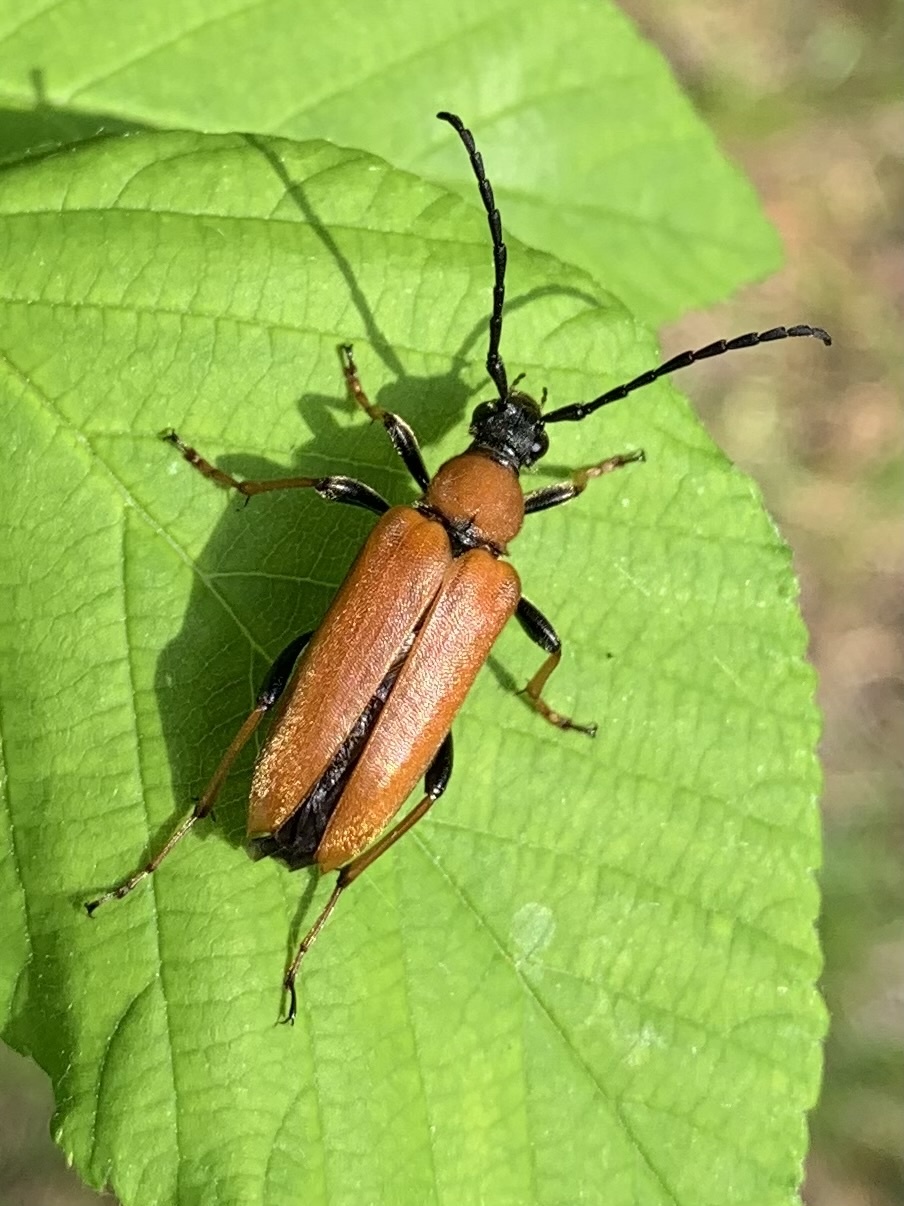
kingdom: Animalia
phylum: Arthropoda
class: Insecta
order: Coleoptera
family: Cerambycidae
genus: Stictoleptura
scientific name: Stictoleptura rubra
